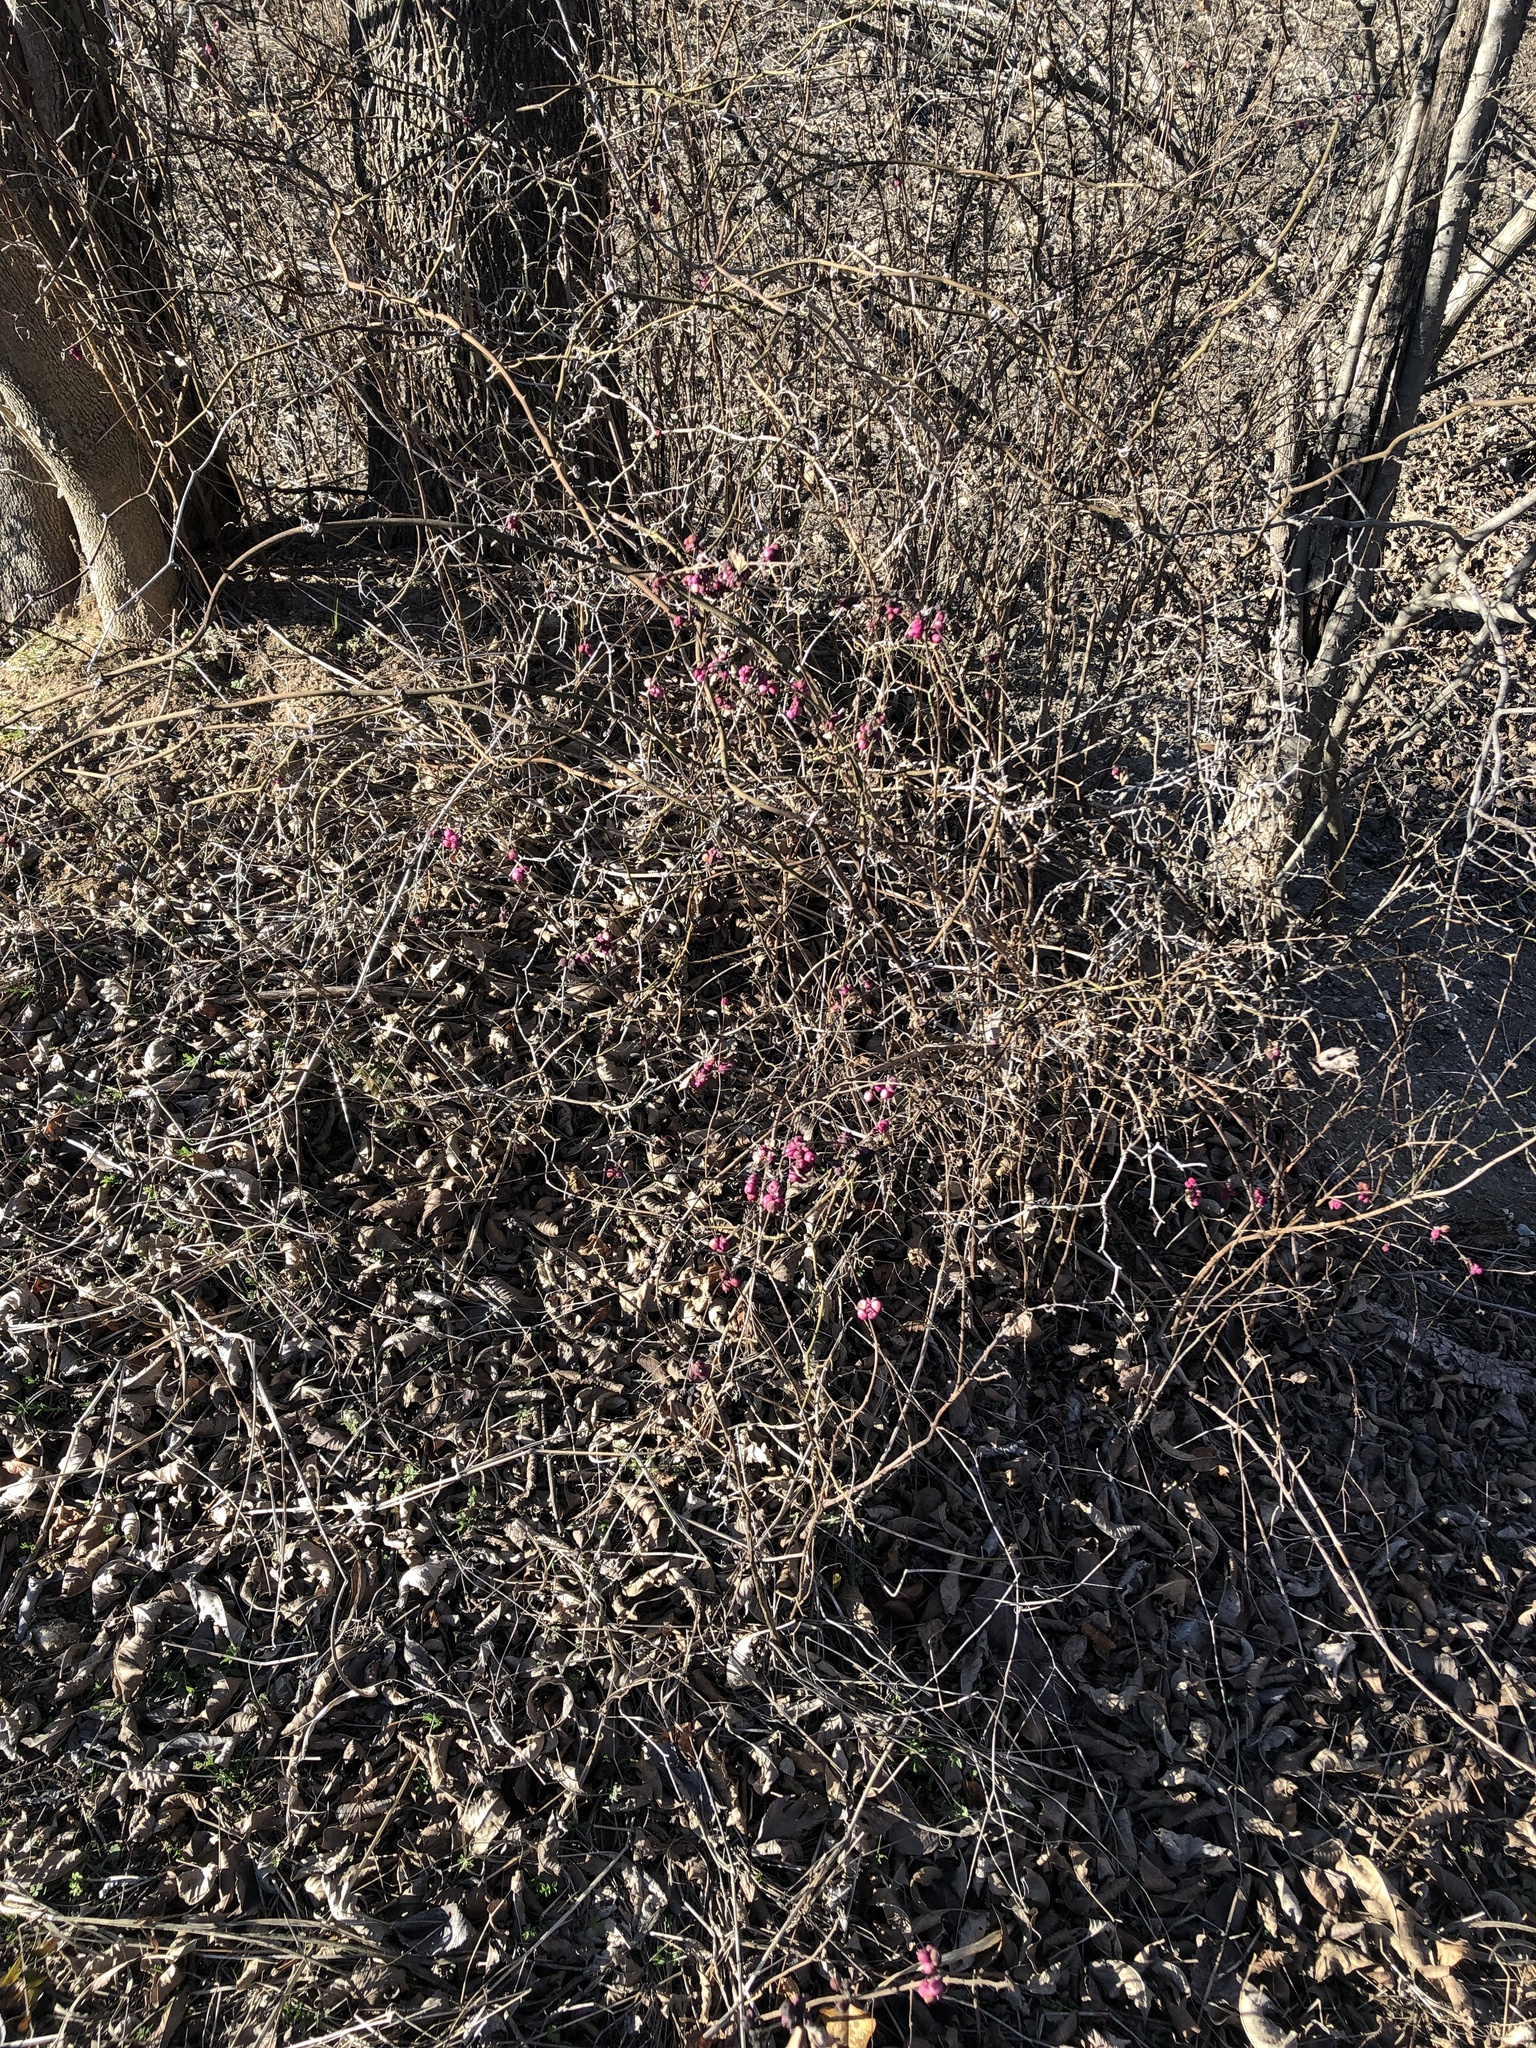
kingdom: Plantae
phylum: Tracheophyta
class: Magnoliopsida
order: Dipsacales
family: Caprifoliaceae
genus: Symphoricarpos
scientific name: Symphoricarpos orbiculatus
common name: Coralberry
